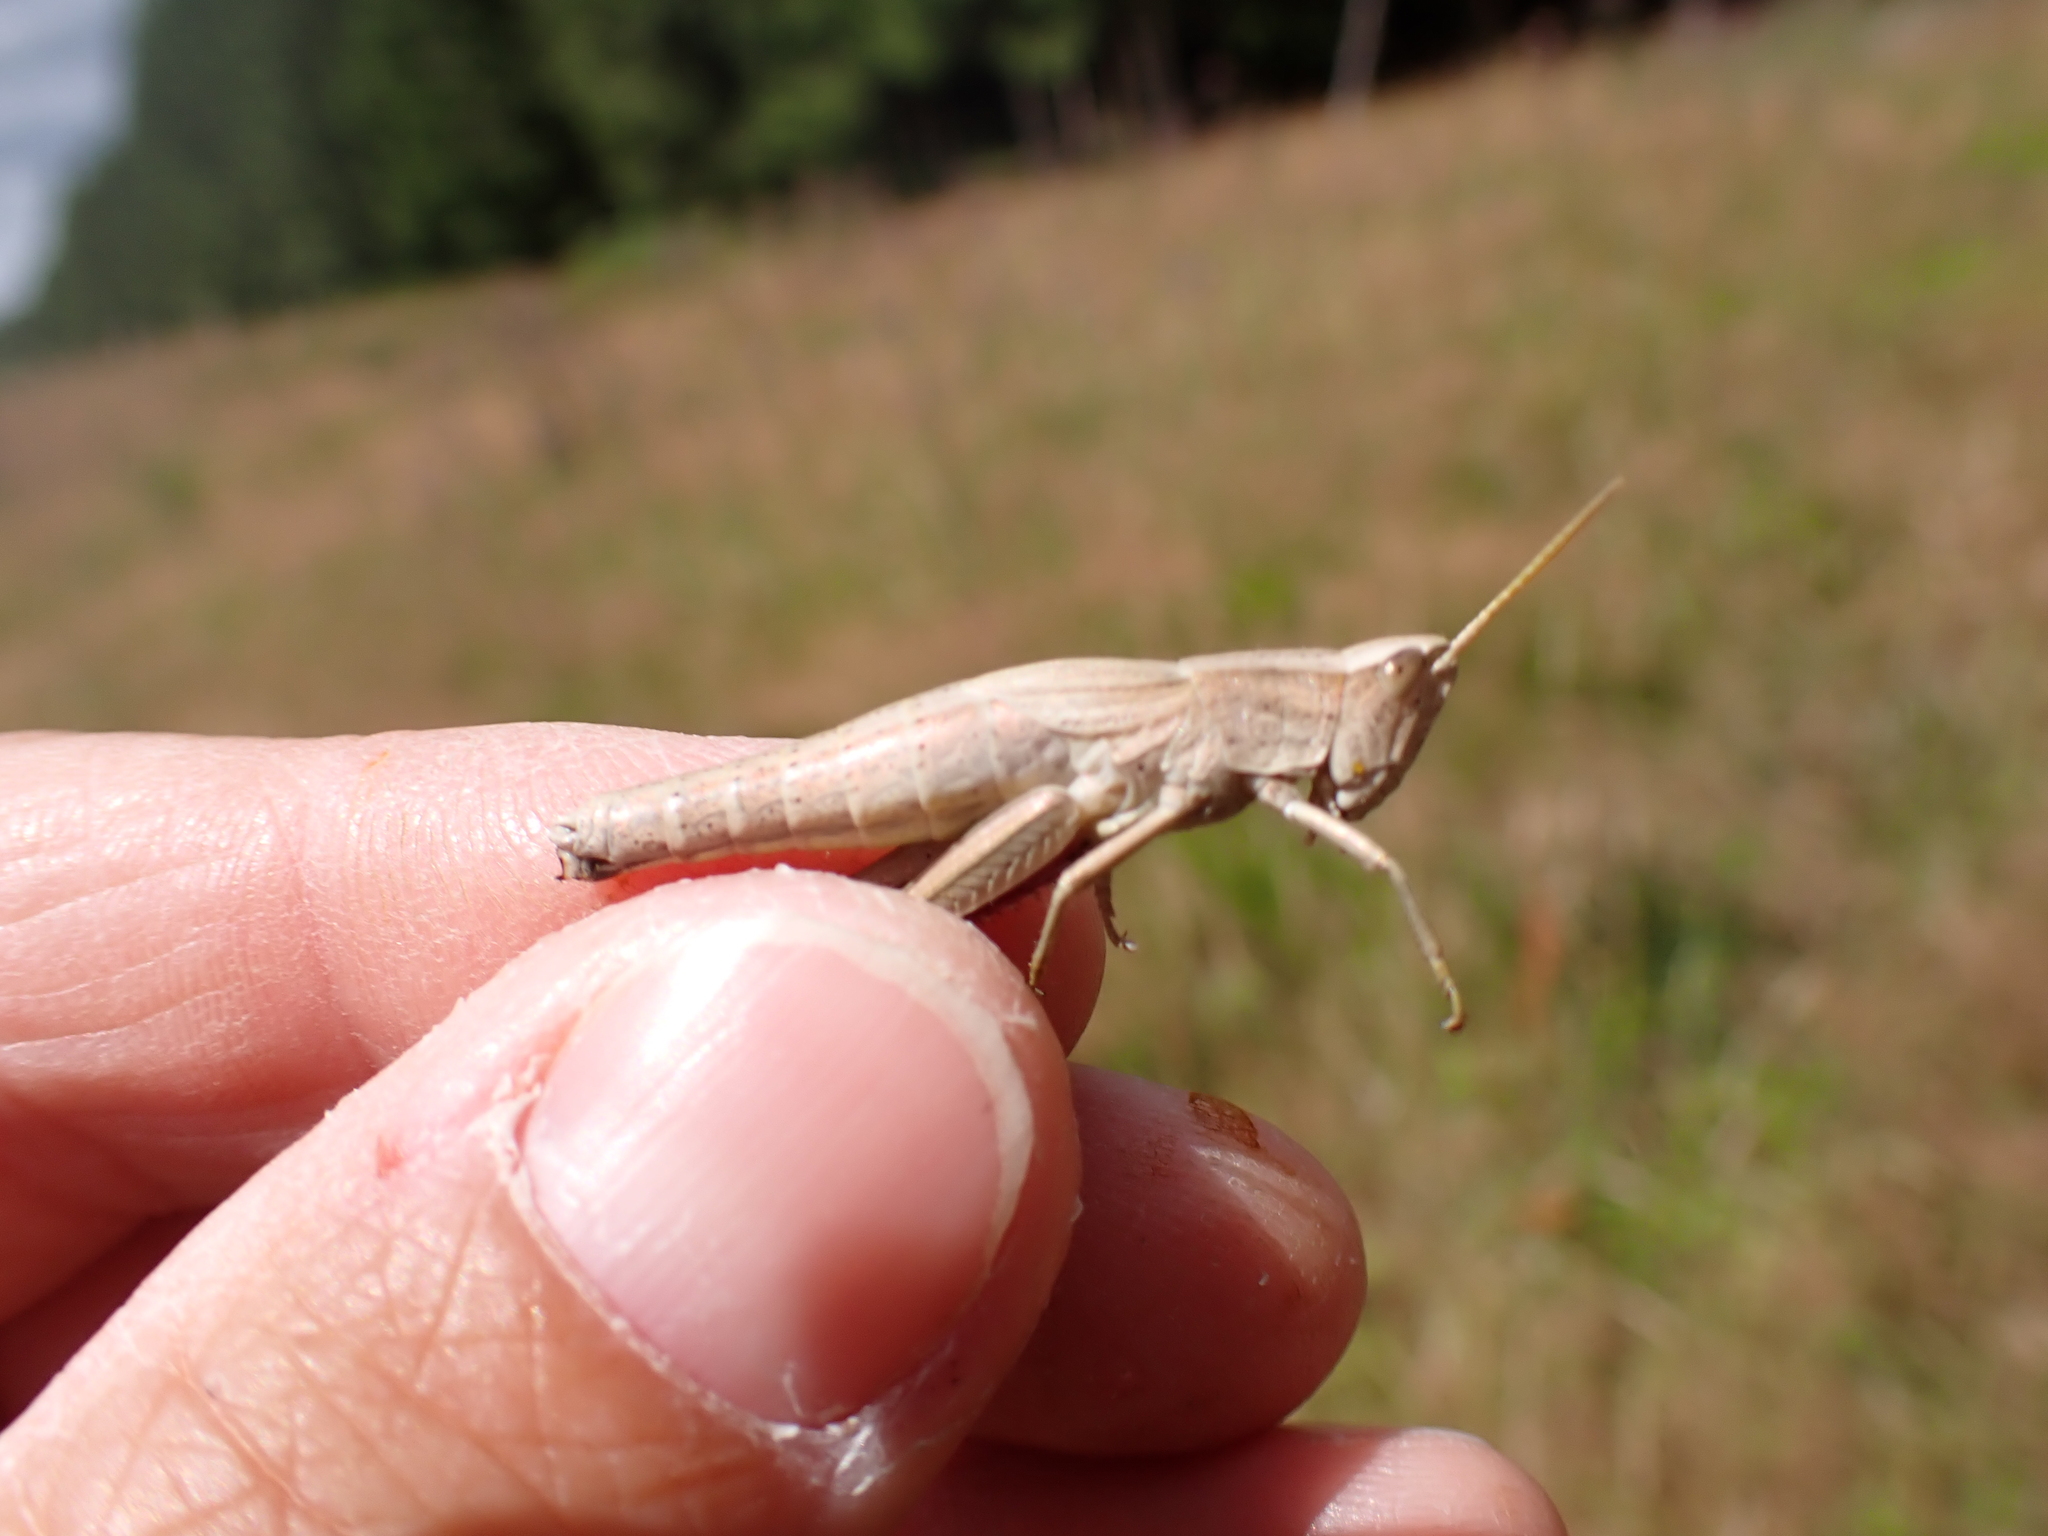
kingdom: Animalia
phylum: Arthropoda
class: Insecta
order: Orthoptera
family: Acrididae
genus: Chrysochraon
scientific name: Chrysochraon dispar
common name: Large gold grasshopper
